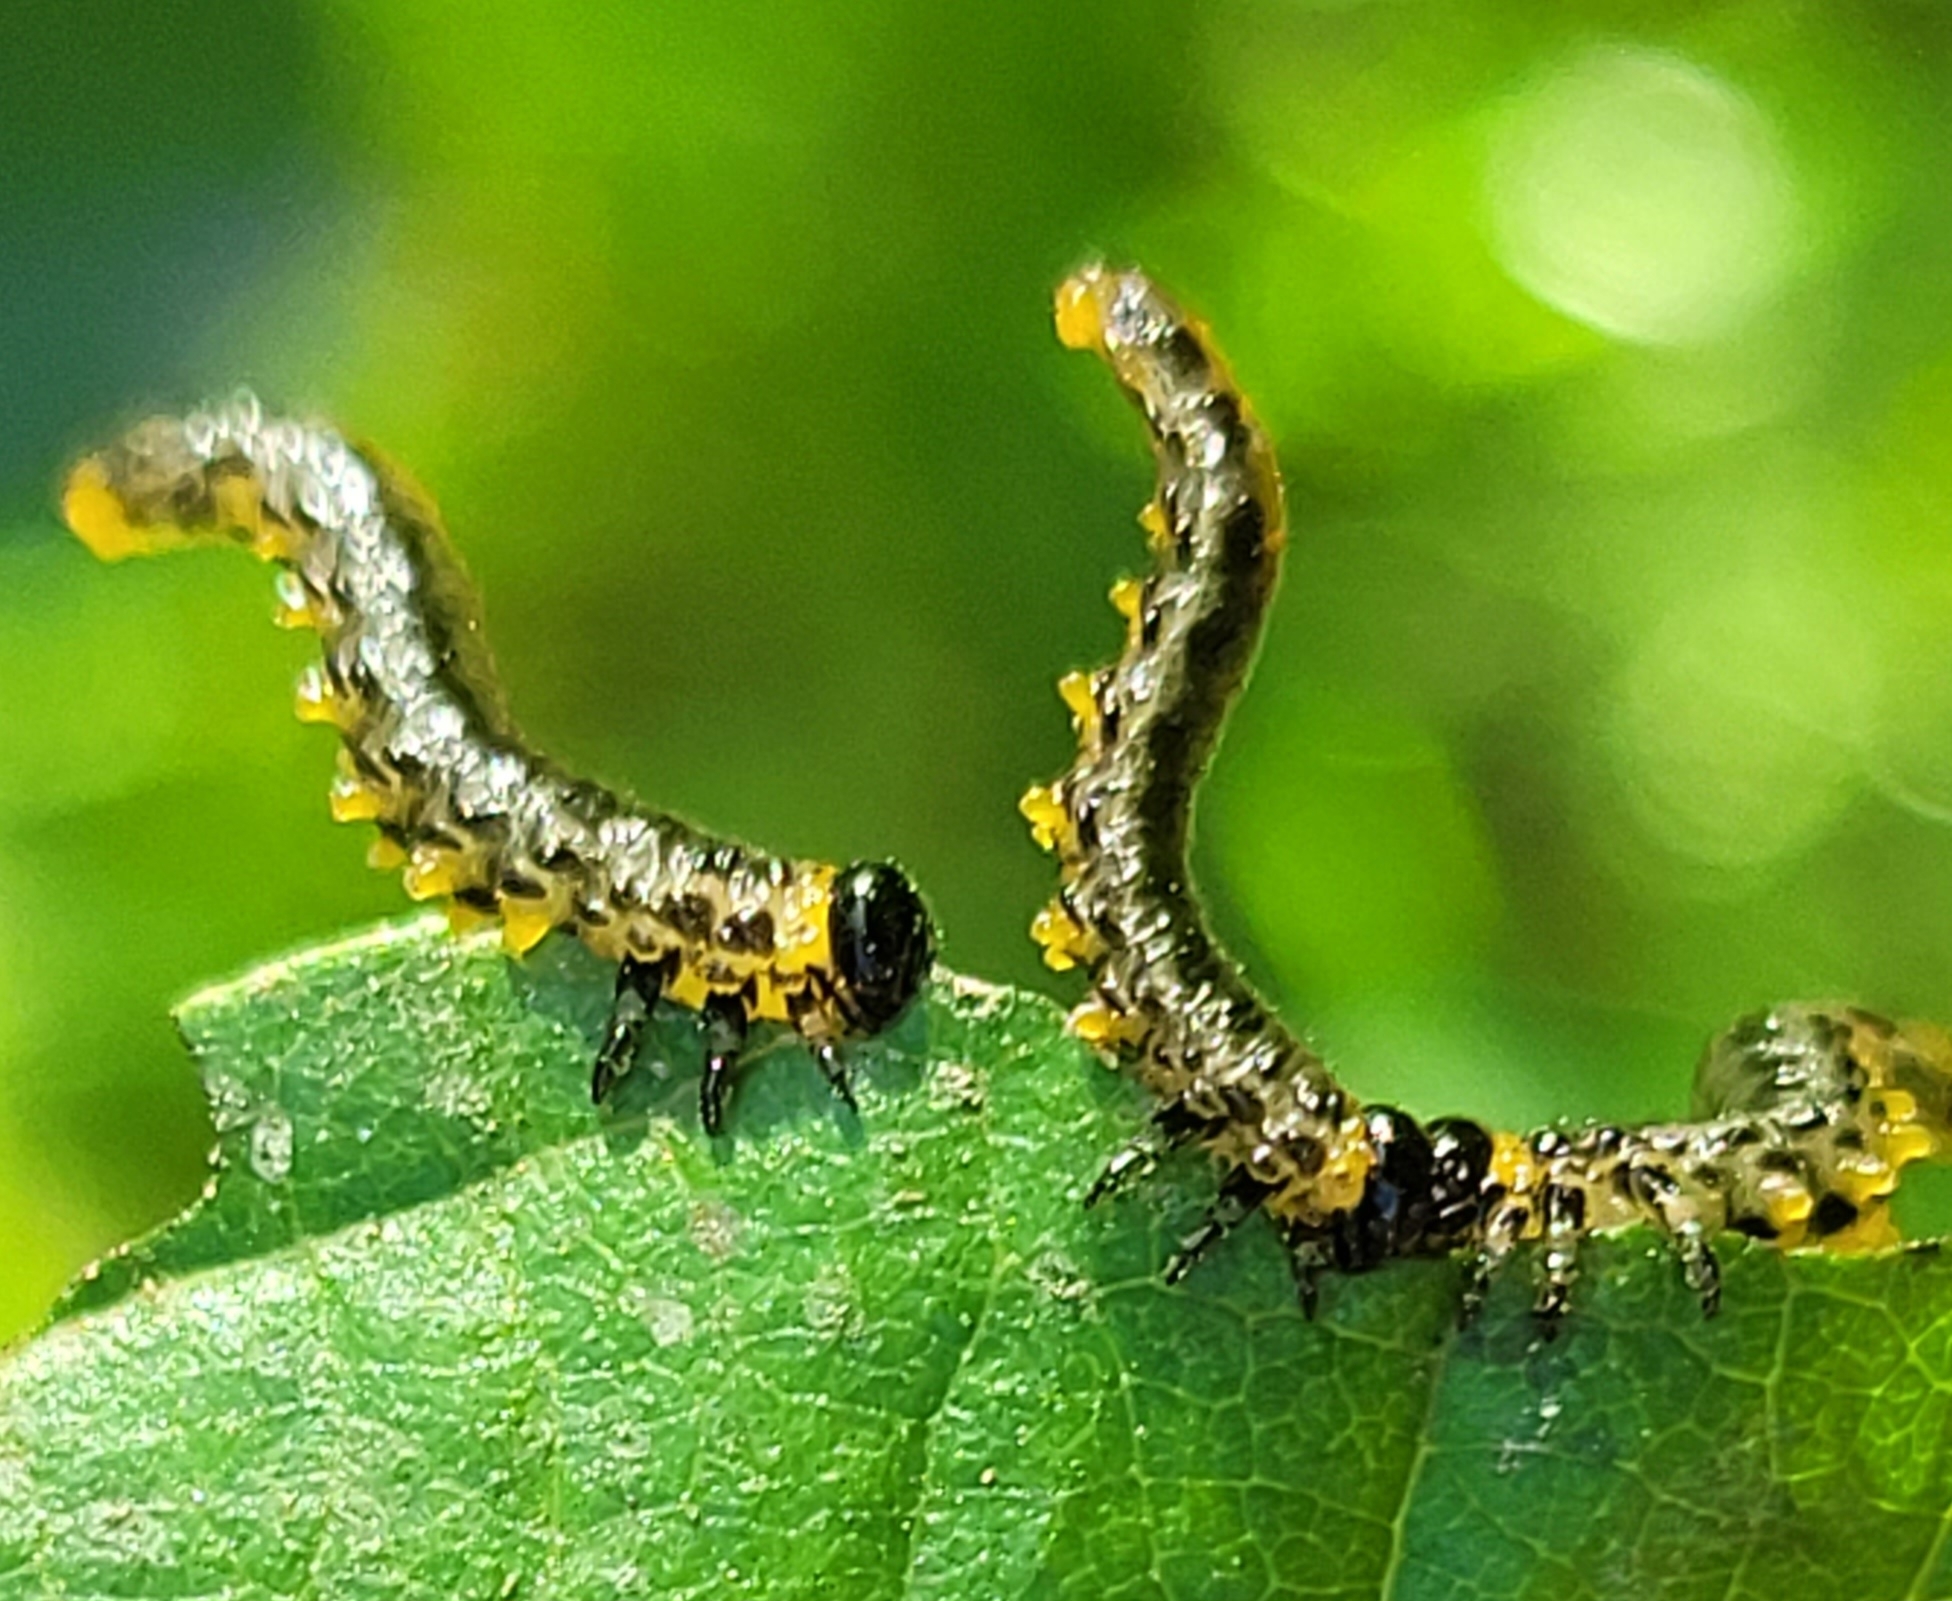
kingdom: Animalia
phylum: Arthropoda
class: Insecta
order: Hymenoptera
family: Tenthredinidae
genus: Craesus
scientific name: Craesus septentrionalis
